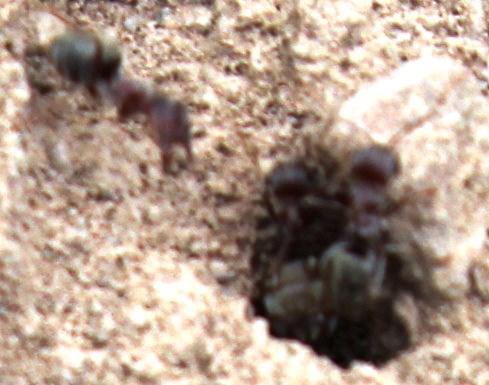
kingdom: Animalia
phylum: Arthropoda
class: Insecta
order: Hymenoptera
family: Formicidae
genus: Anoplolepis
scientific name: Anoplolepis custodiens
